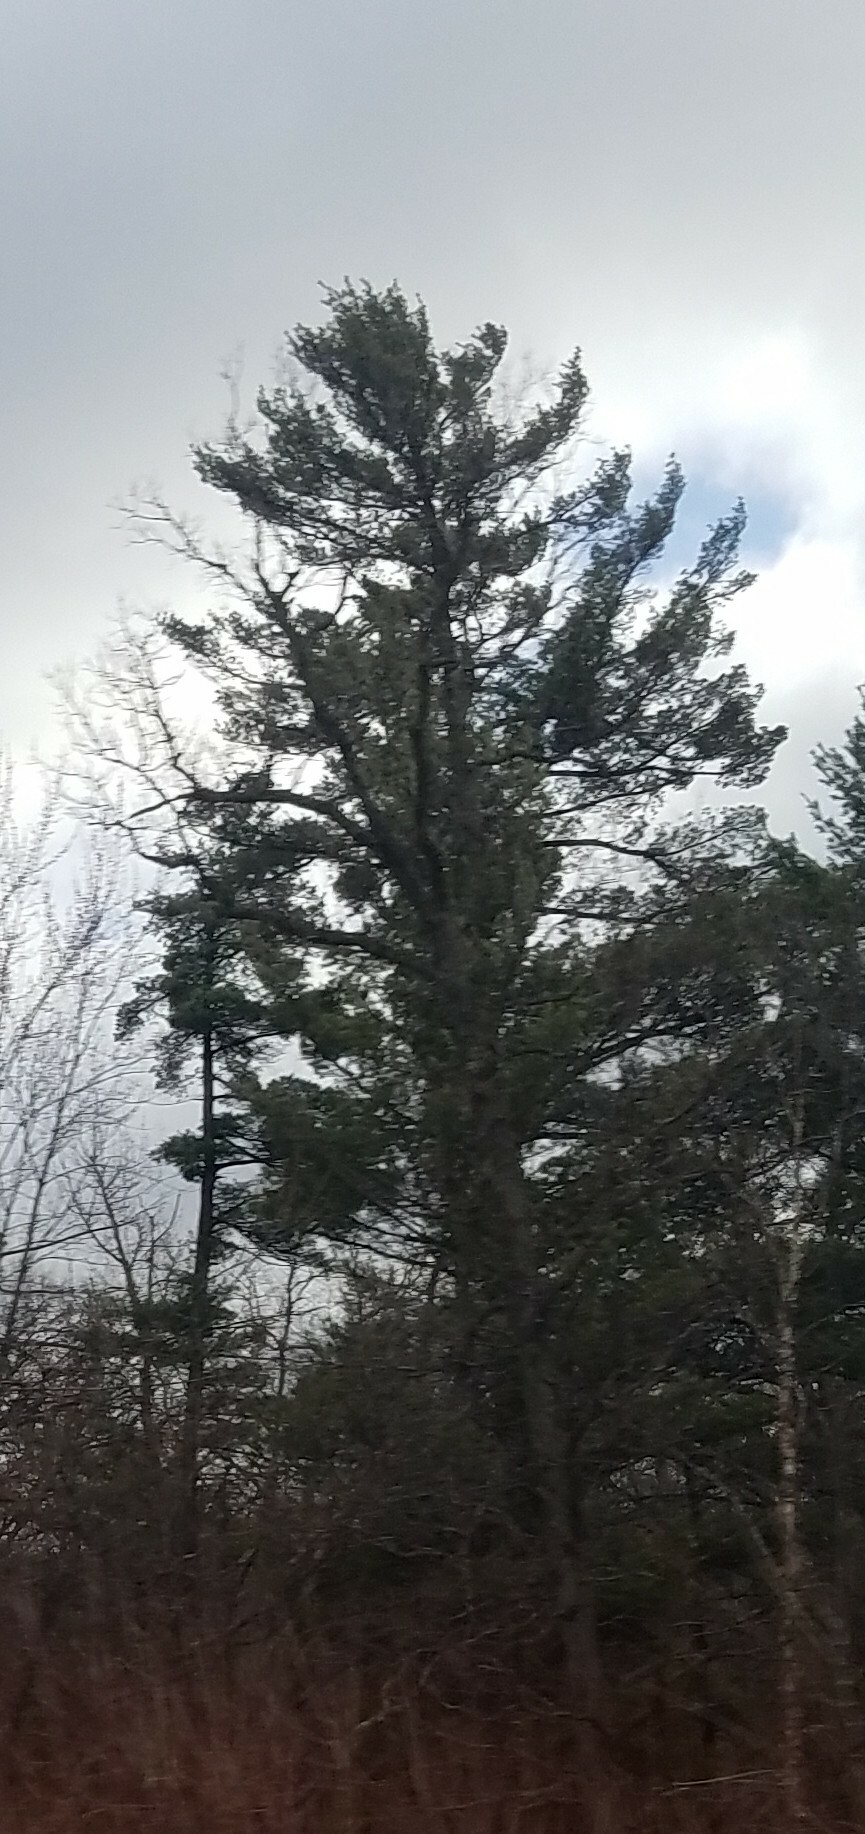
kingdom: Plantae
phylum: Tracheophyta
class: Pinopsida
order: Pinales
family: Pinaceae
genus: Pinus
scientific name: Pinus strobus
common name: Weymouth pine
